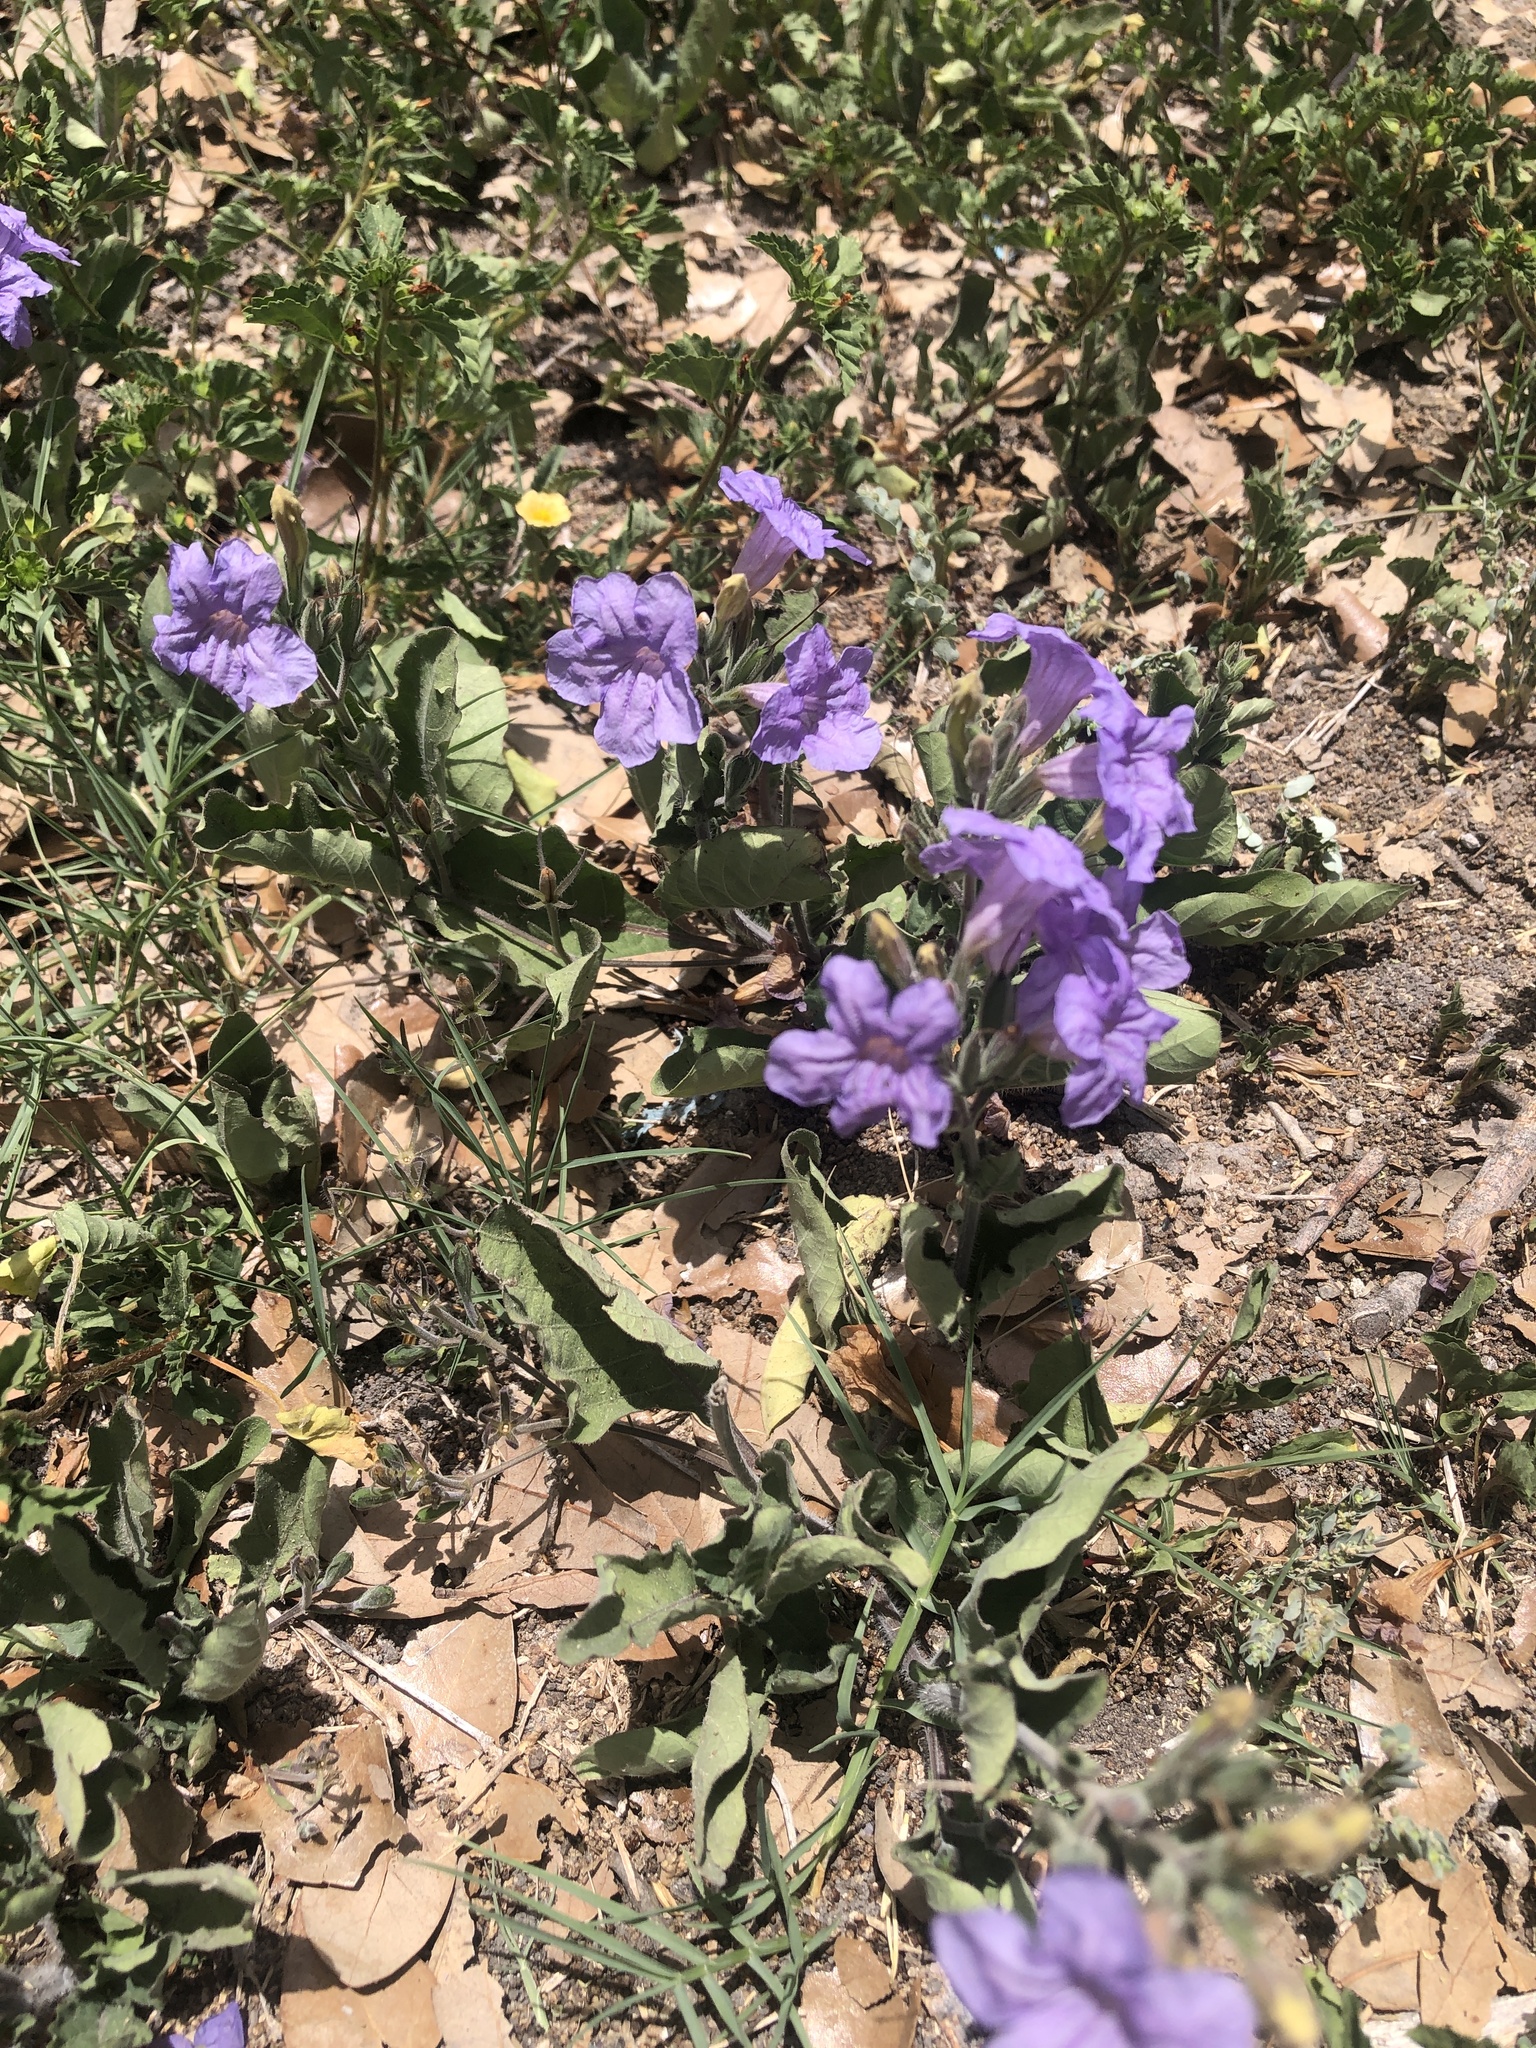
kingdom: Plantae
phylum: Tracheophyta
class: Magnoliopsida
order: Lamiales
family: Acanthaceae
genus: Ruellia
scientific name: Ruellia ciliatiflora
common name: Hairyflower wild petunia
